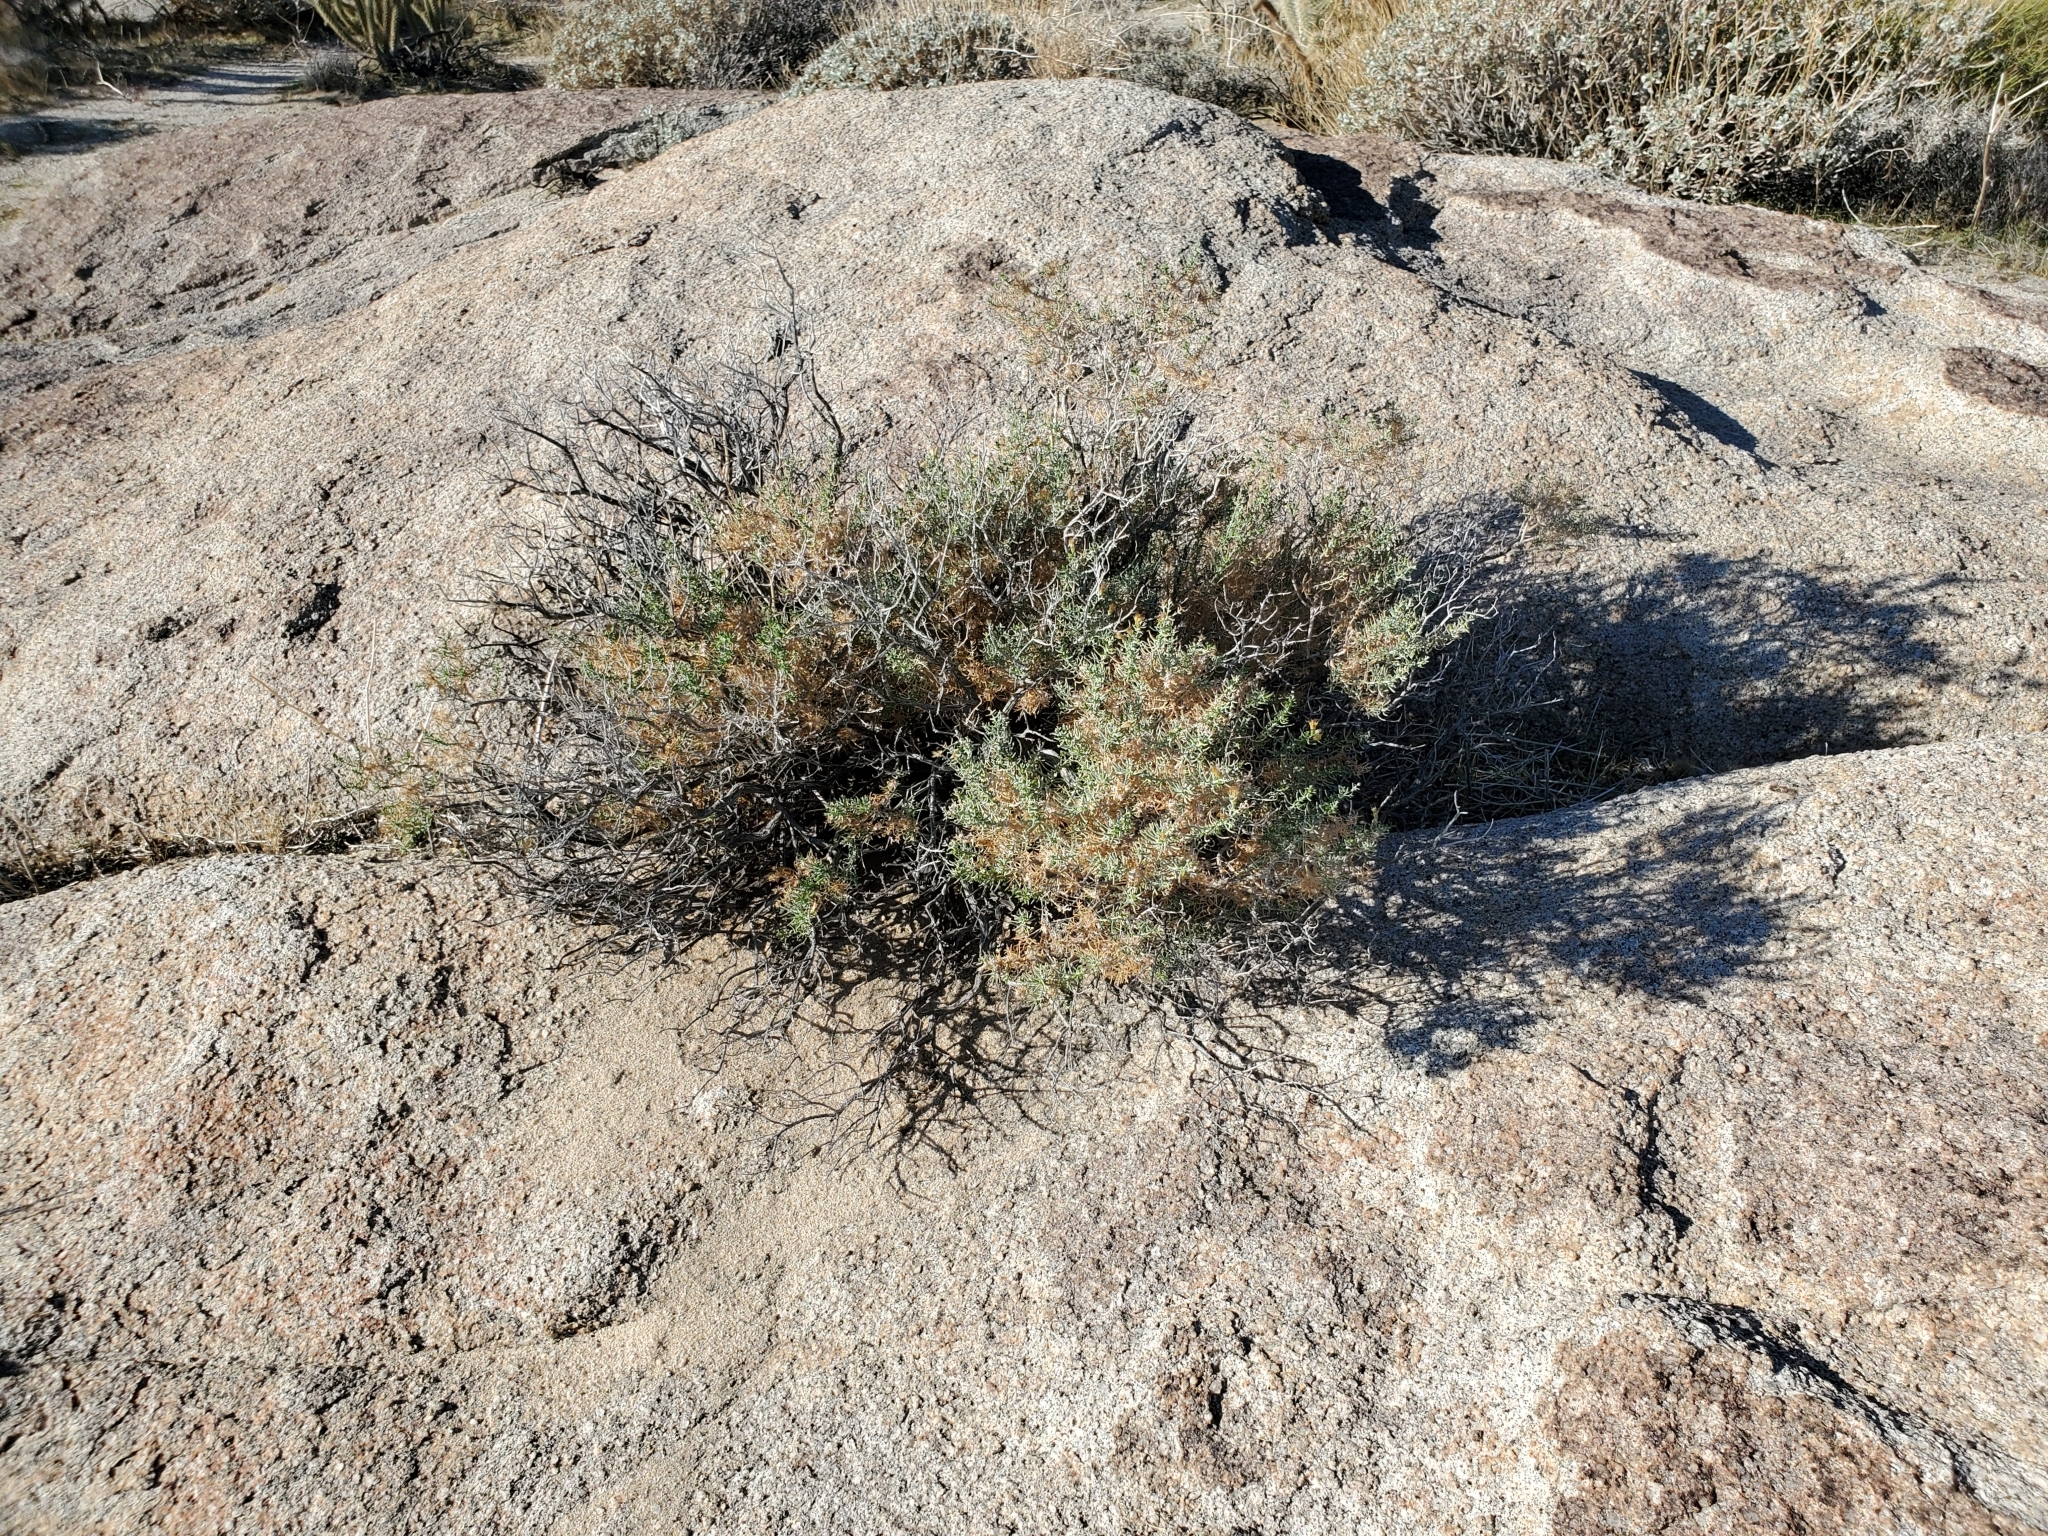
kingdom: Plantae
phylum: Tracheophyta
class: Magnoliopsida
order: Asterales
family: Asteraceae
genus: Ericameria
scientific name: Ericameria brachylepis
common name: Boundary goldenbush
